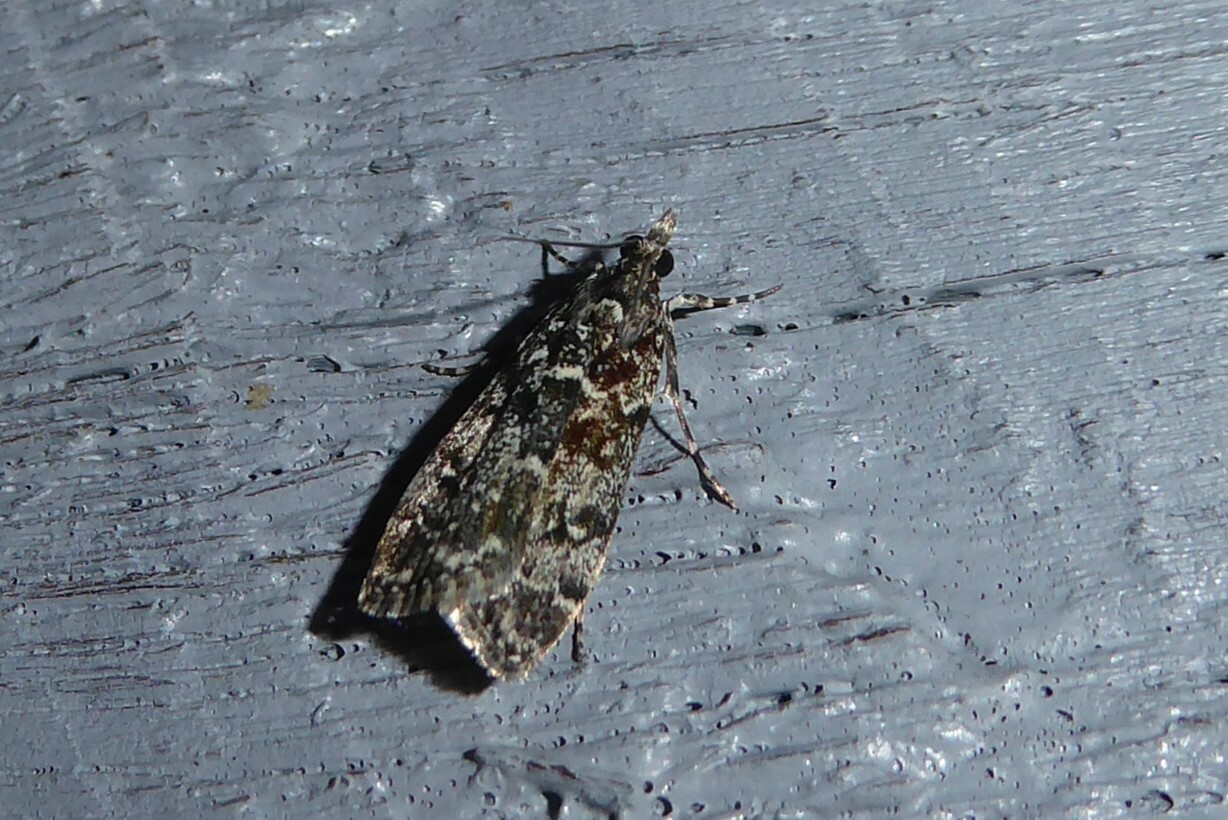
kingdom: Animalia
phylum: Arthropoda
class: Insecta
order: Lepidoptera
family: Crambidae
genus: Eudonia
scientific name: Eudonia philerga
